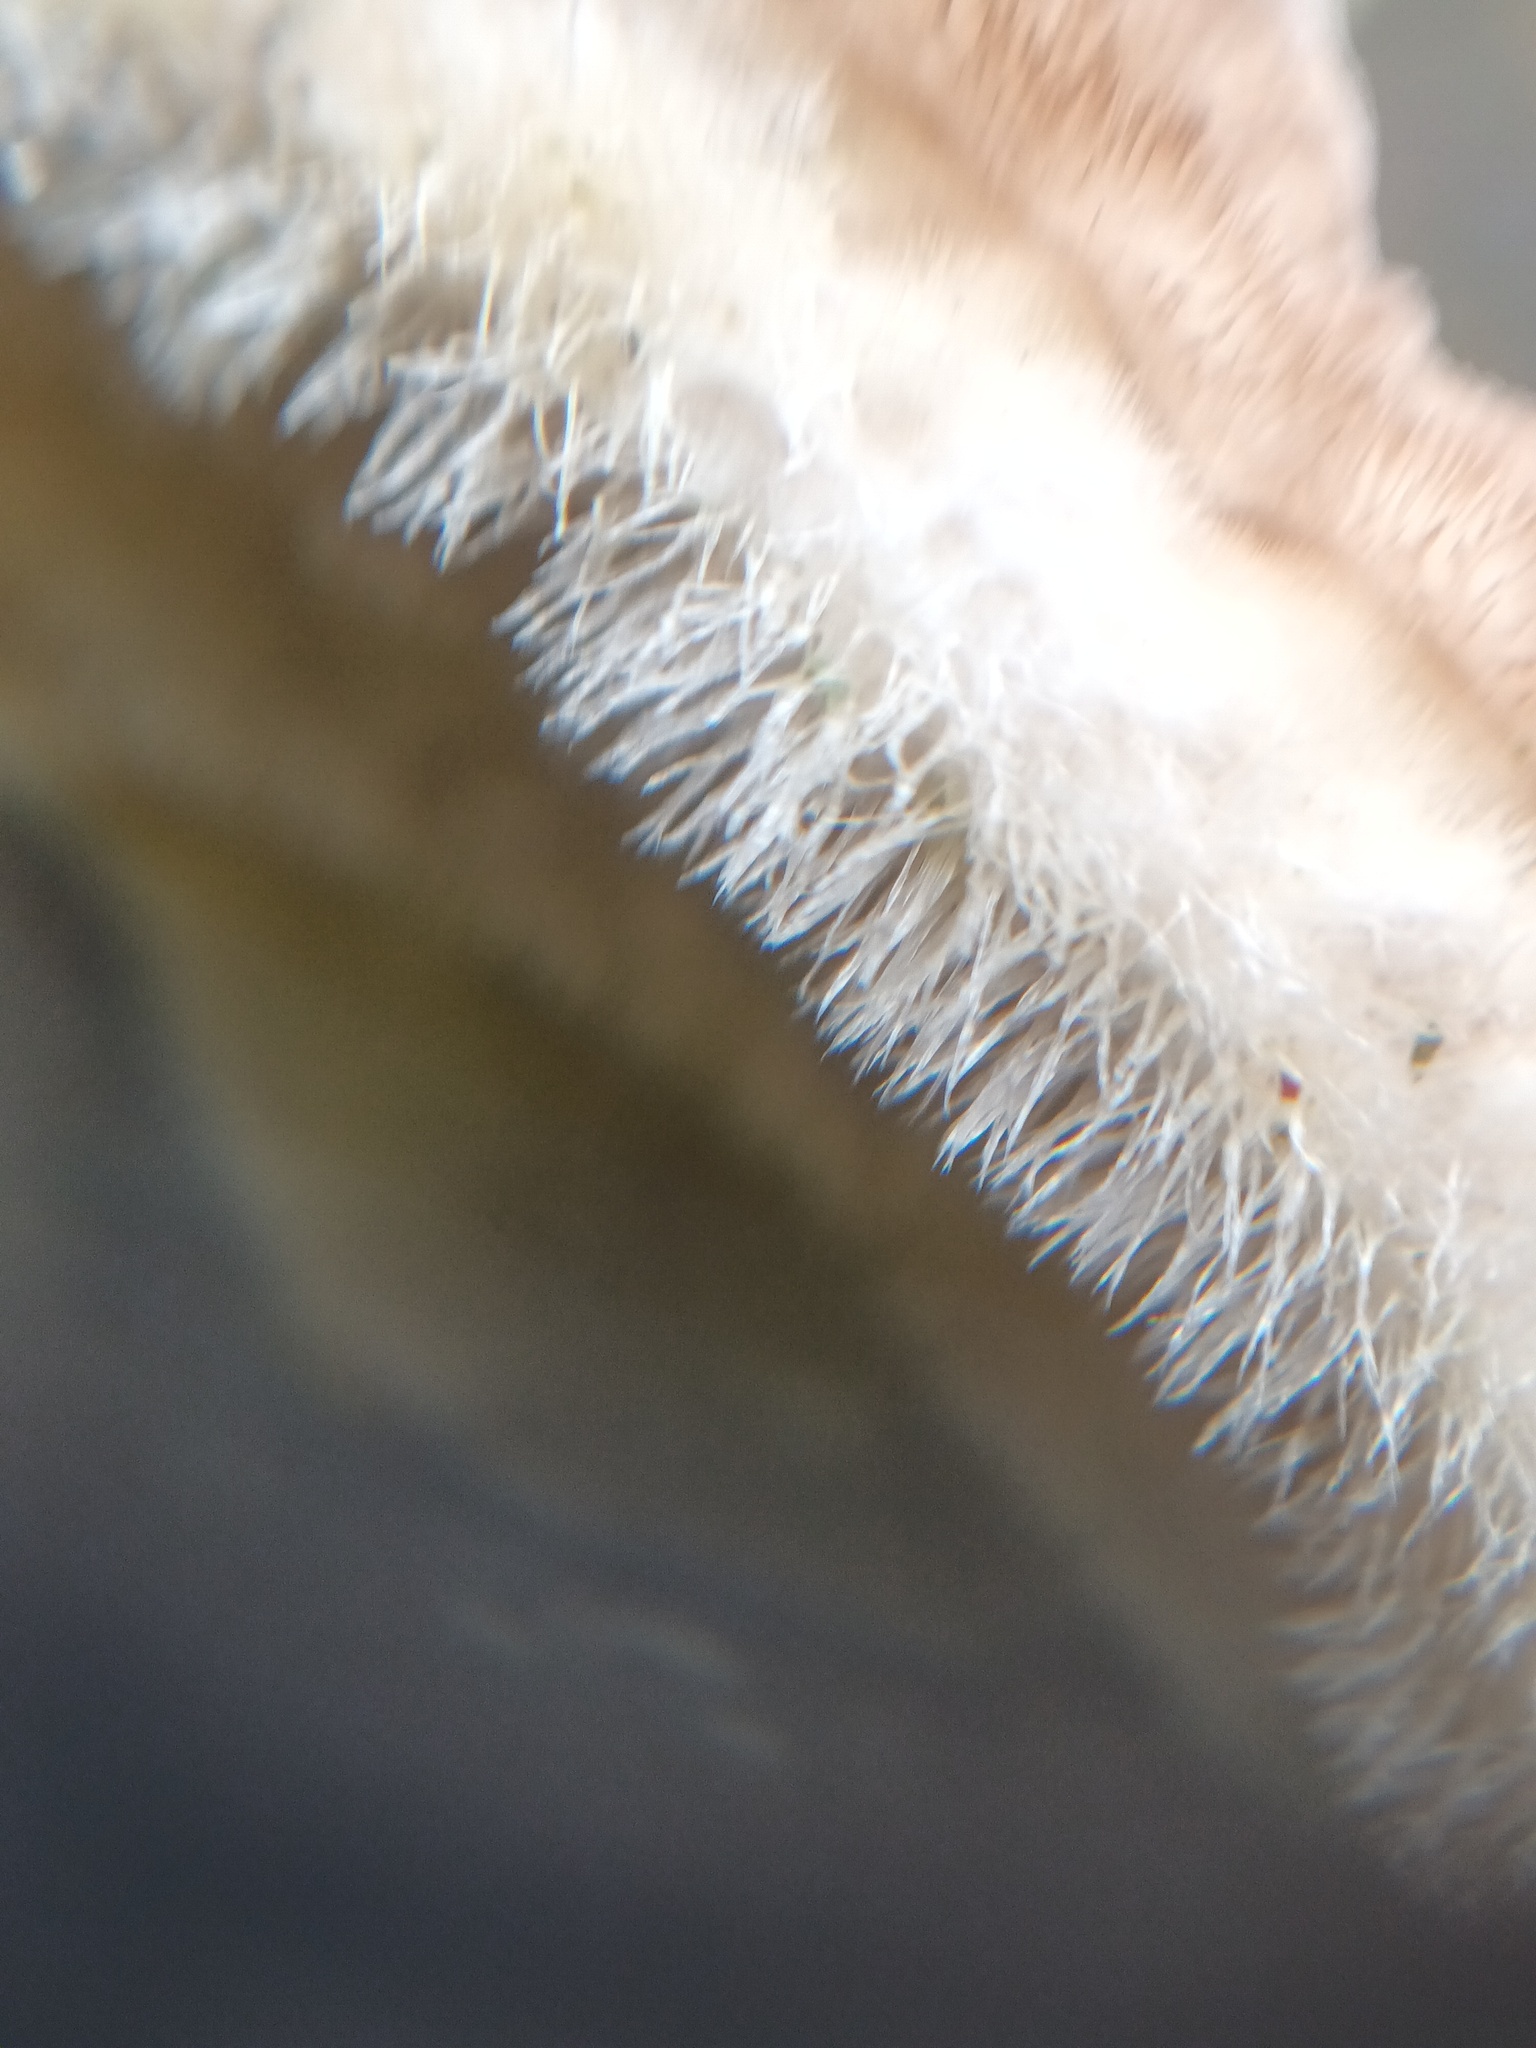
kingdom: Fungi
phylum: Basidiomycota
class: Agaricomycetes
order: Polyporales
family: Polyporaceae
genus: Trametes
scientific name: Trametes hirsuta
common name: Hairy bracket
